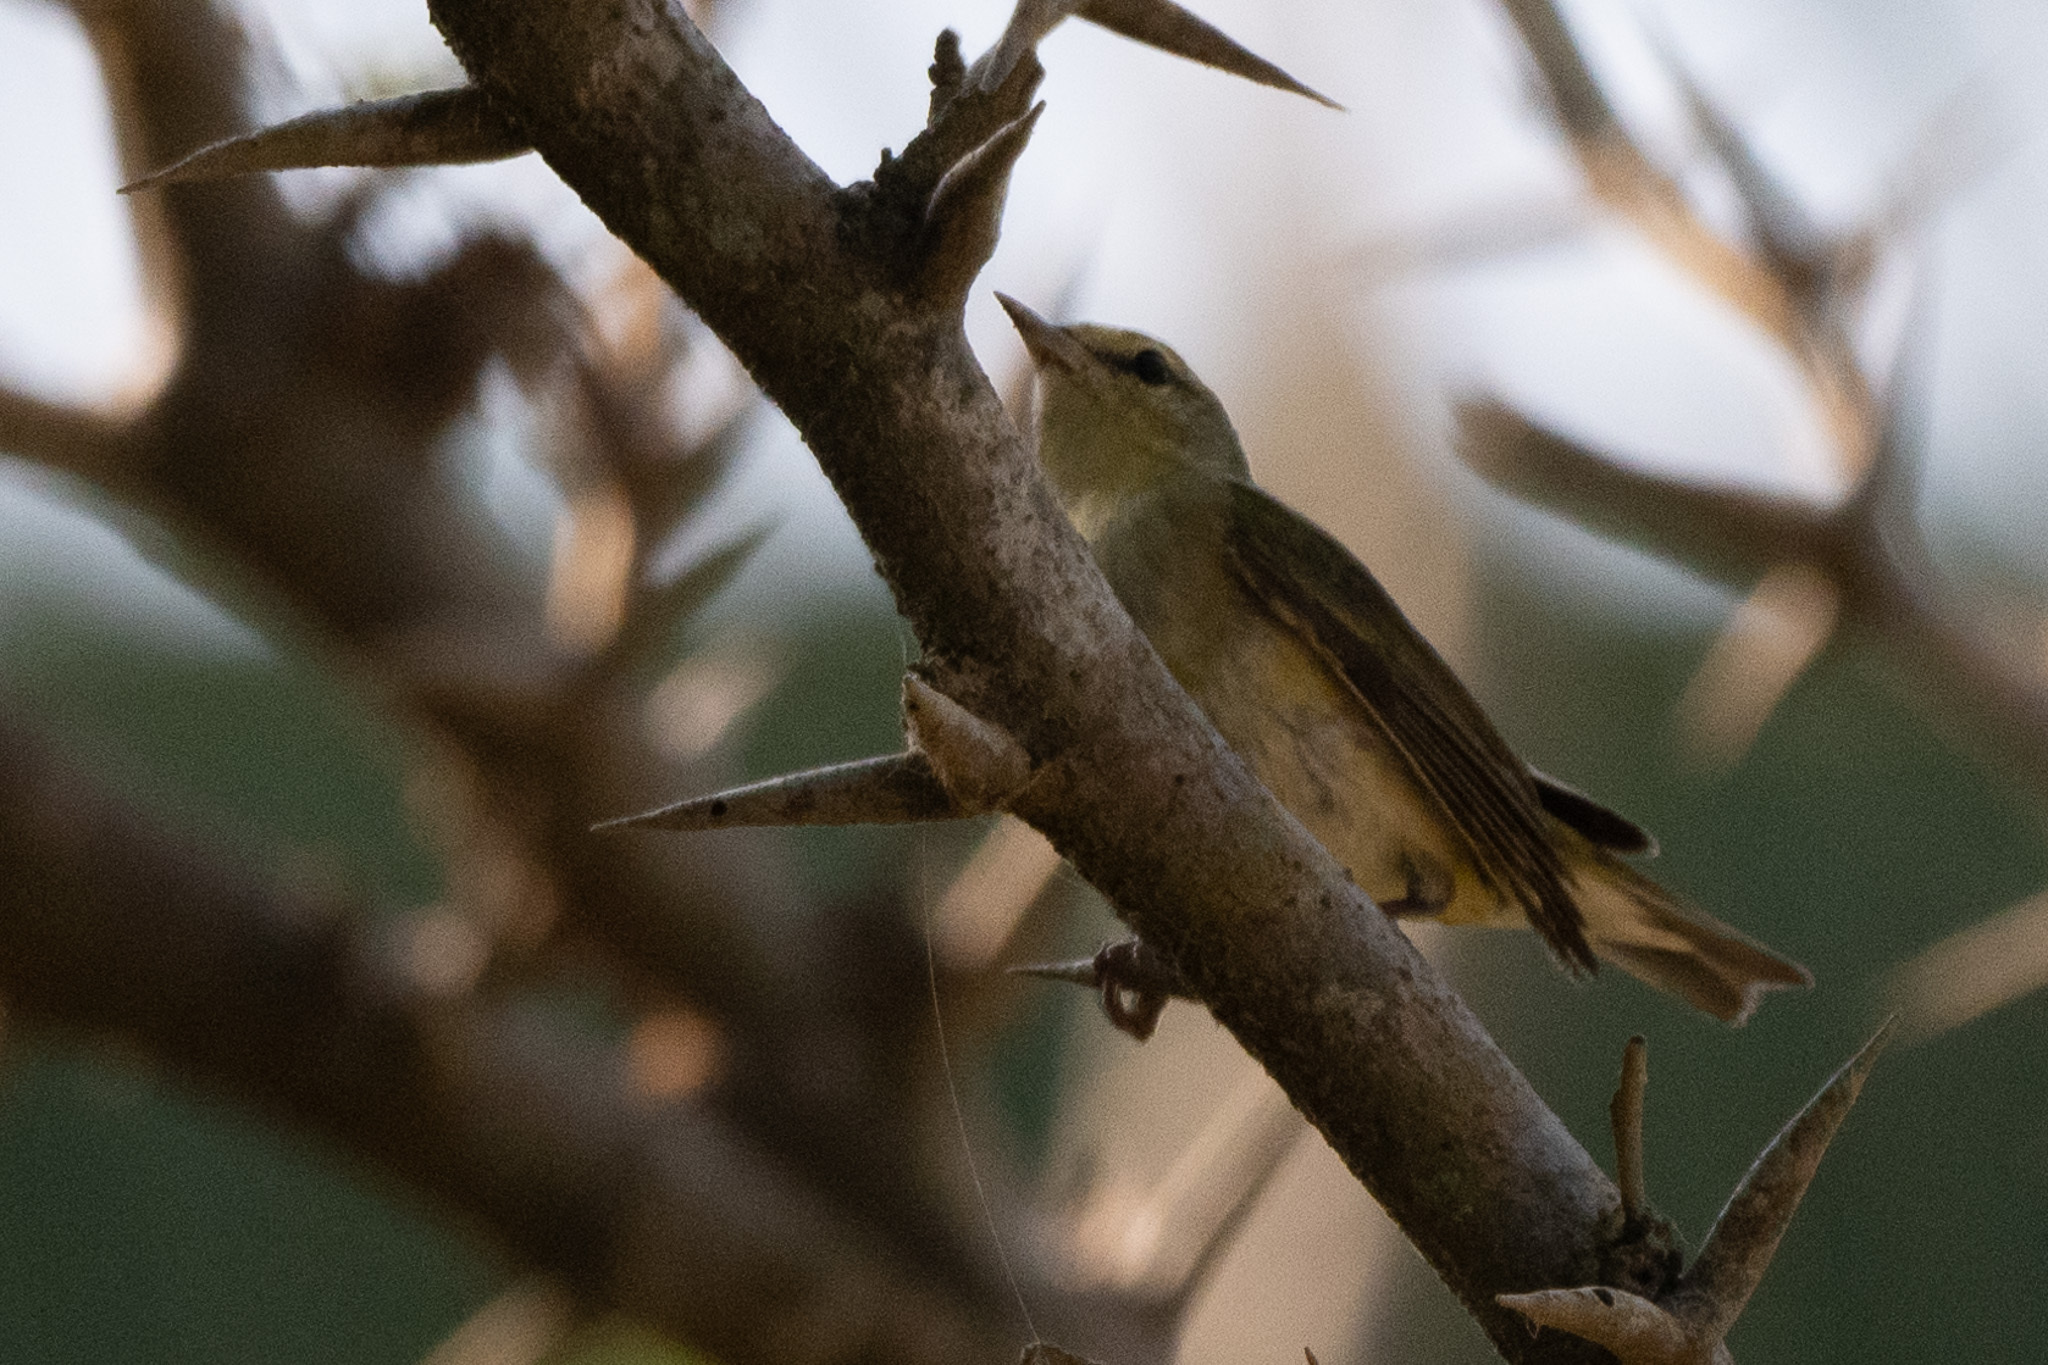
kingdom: Animalia
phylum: Chordata
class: Aves
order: Passeriformes
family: Parulidae
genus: Leiothlypis
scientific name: Leiothlypis peregrina
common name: Tennessee warbler
